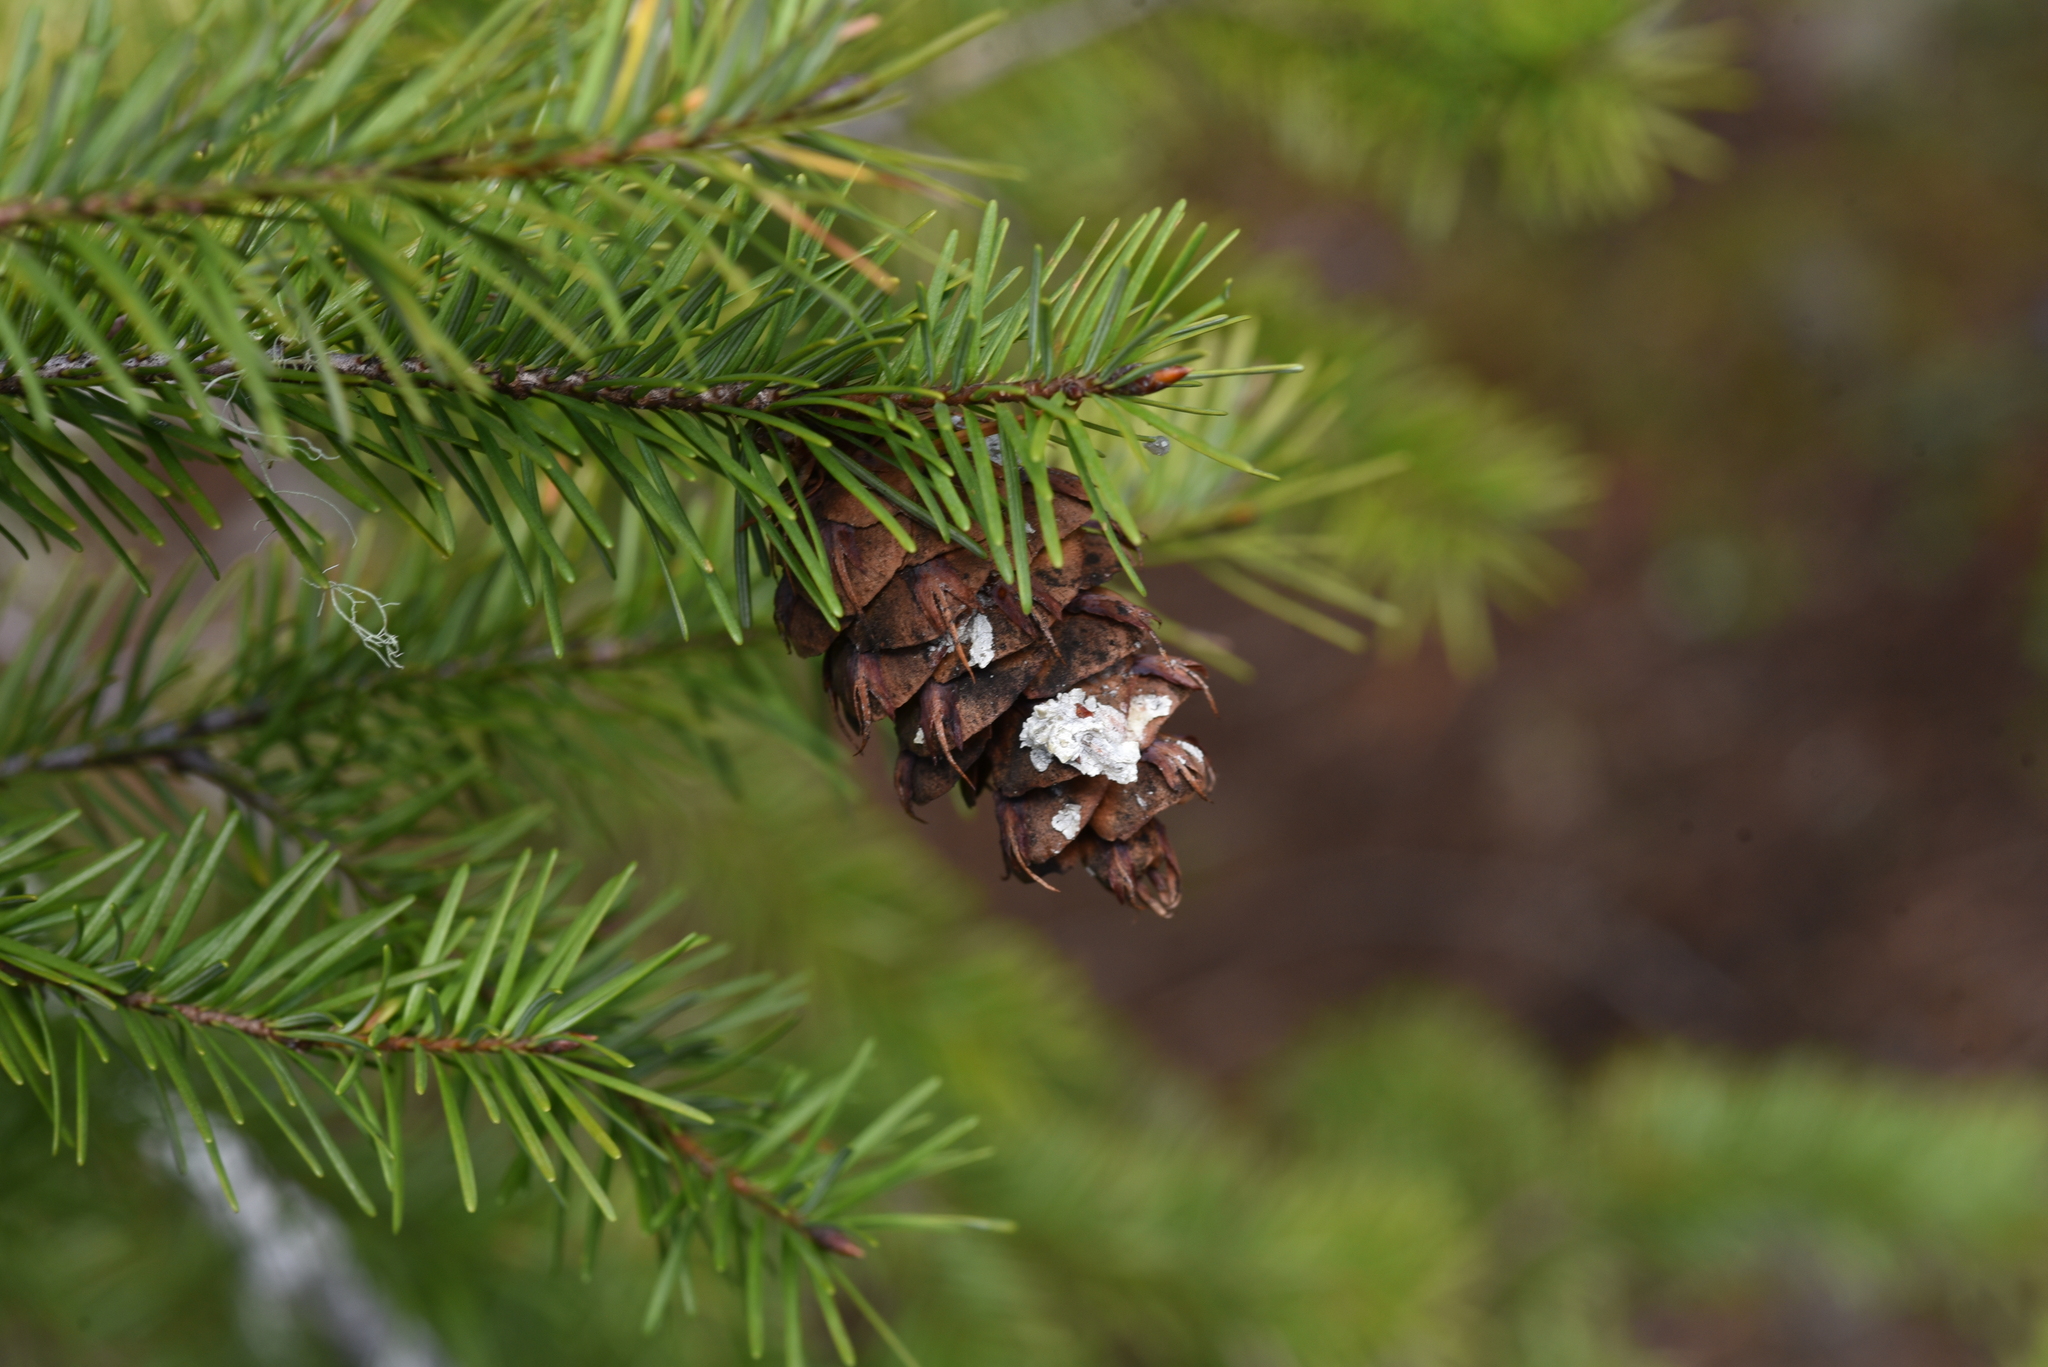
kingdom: Plantae
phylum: Tracheophyta
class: Pinopsida
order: Pinales
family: Pinaceae
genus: Pseudotsuga
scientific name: Pseudotsuga menziesii
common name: Douglas fir
